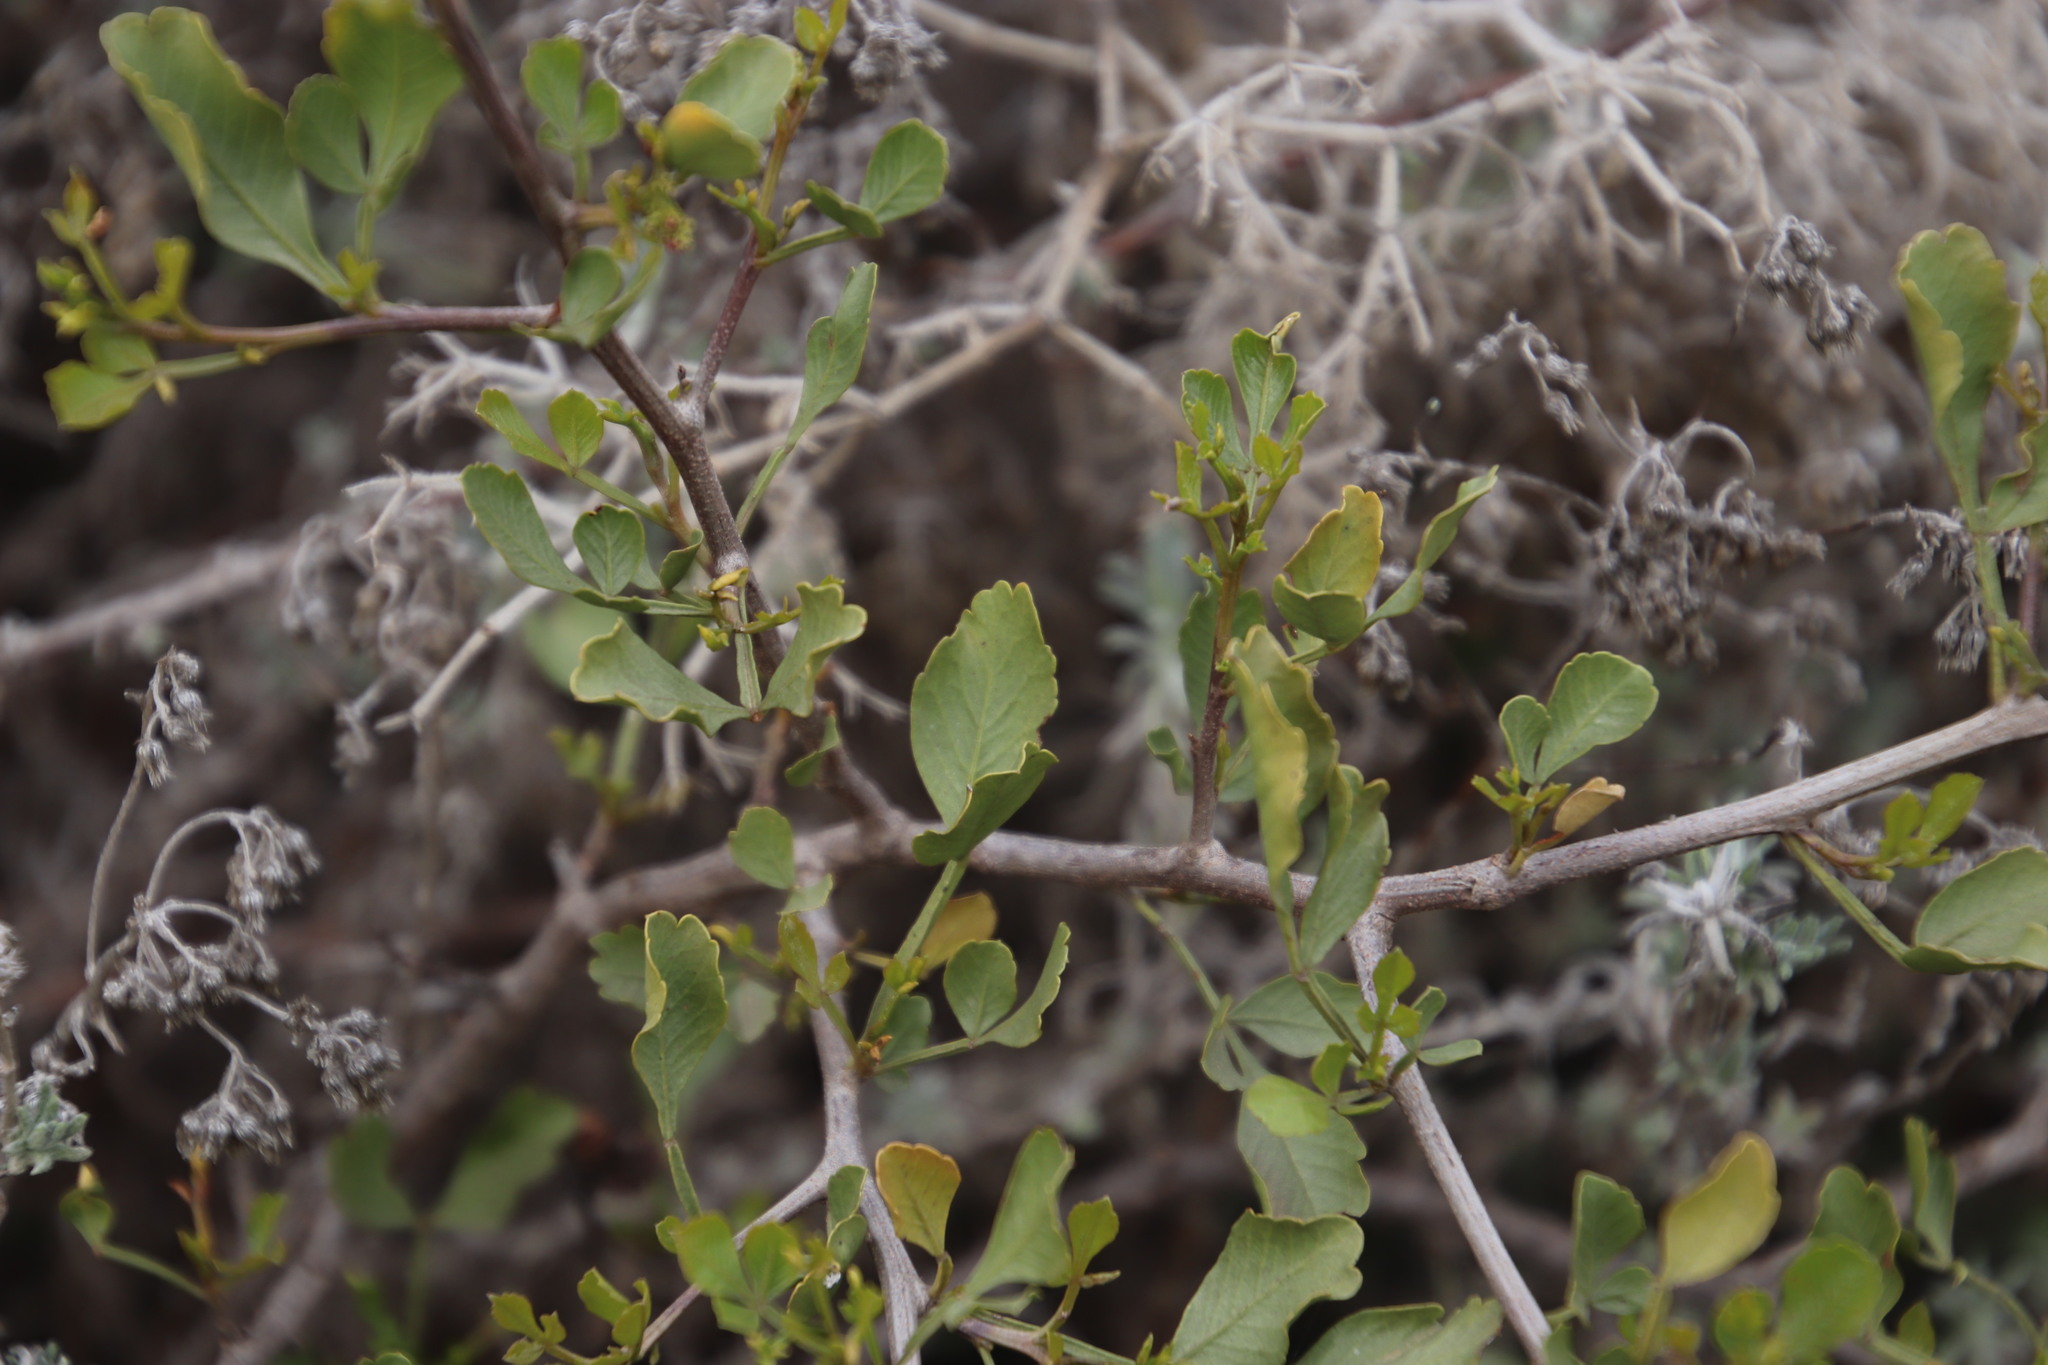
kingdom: Plantae
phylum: Tracheophyta
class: Magnoliopsida
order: Sapindales
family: Anacardiaceae
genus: Searsia
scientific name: Searsia undulata
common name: Namaqua kunibush
